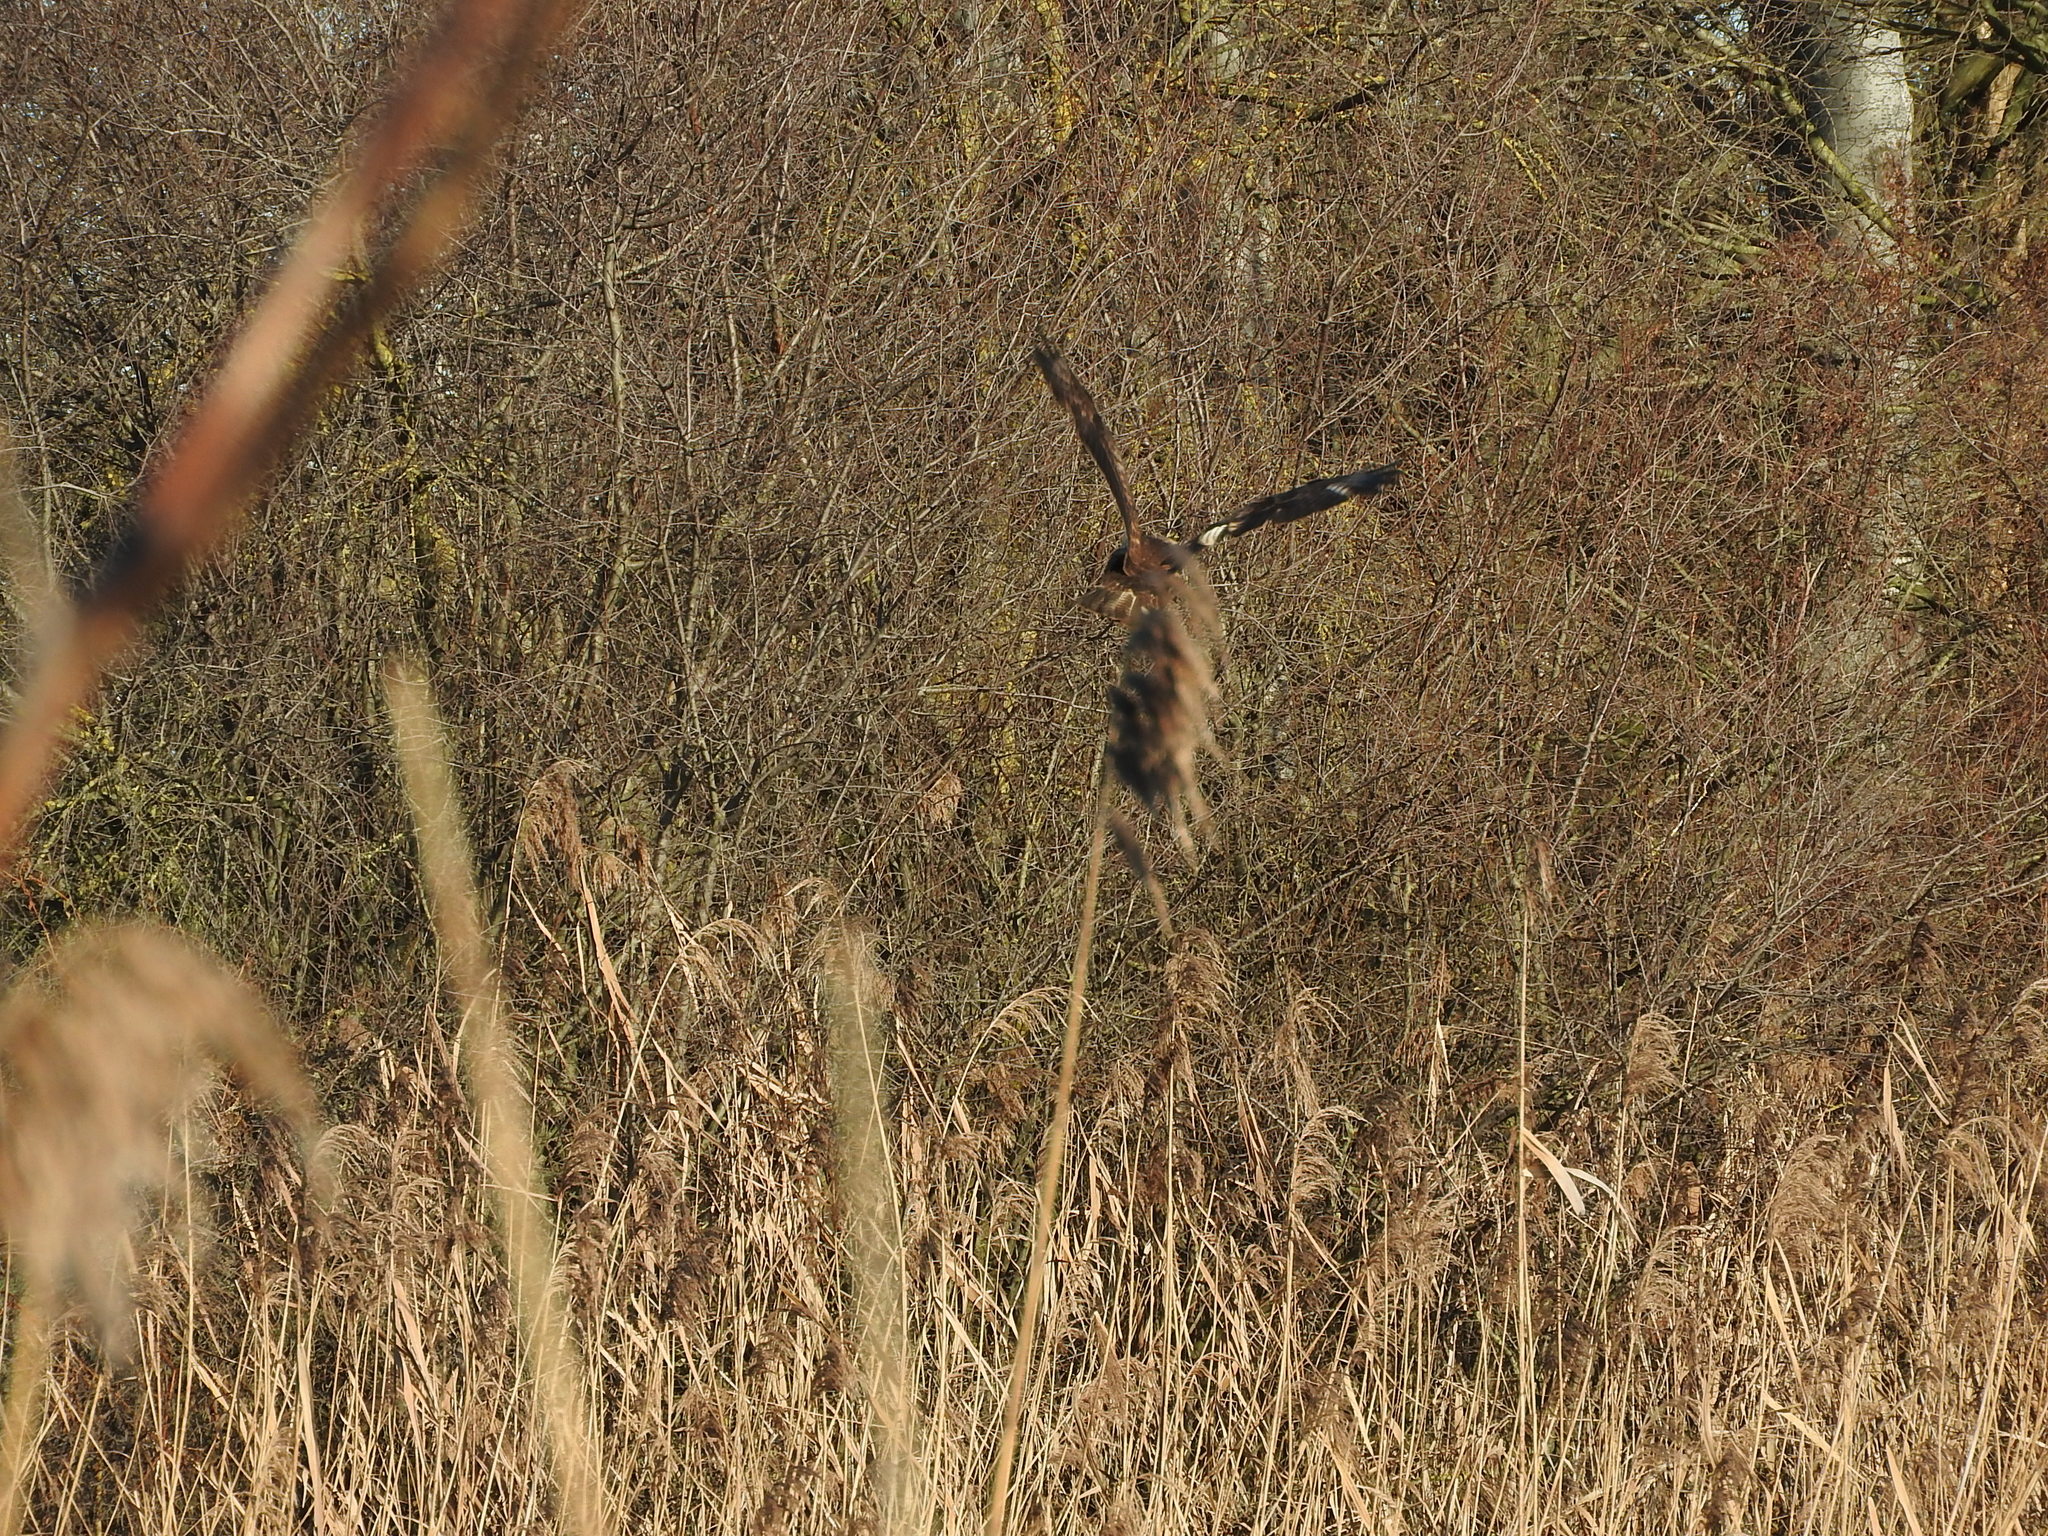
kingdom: Animalia
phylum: Chordata
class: Aves
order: Accipitriformes
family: Accipitridae
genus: Buteo
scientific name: Buteo buteo
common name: Common buzzard
